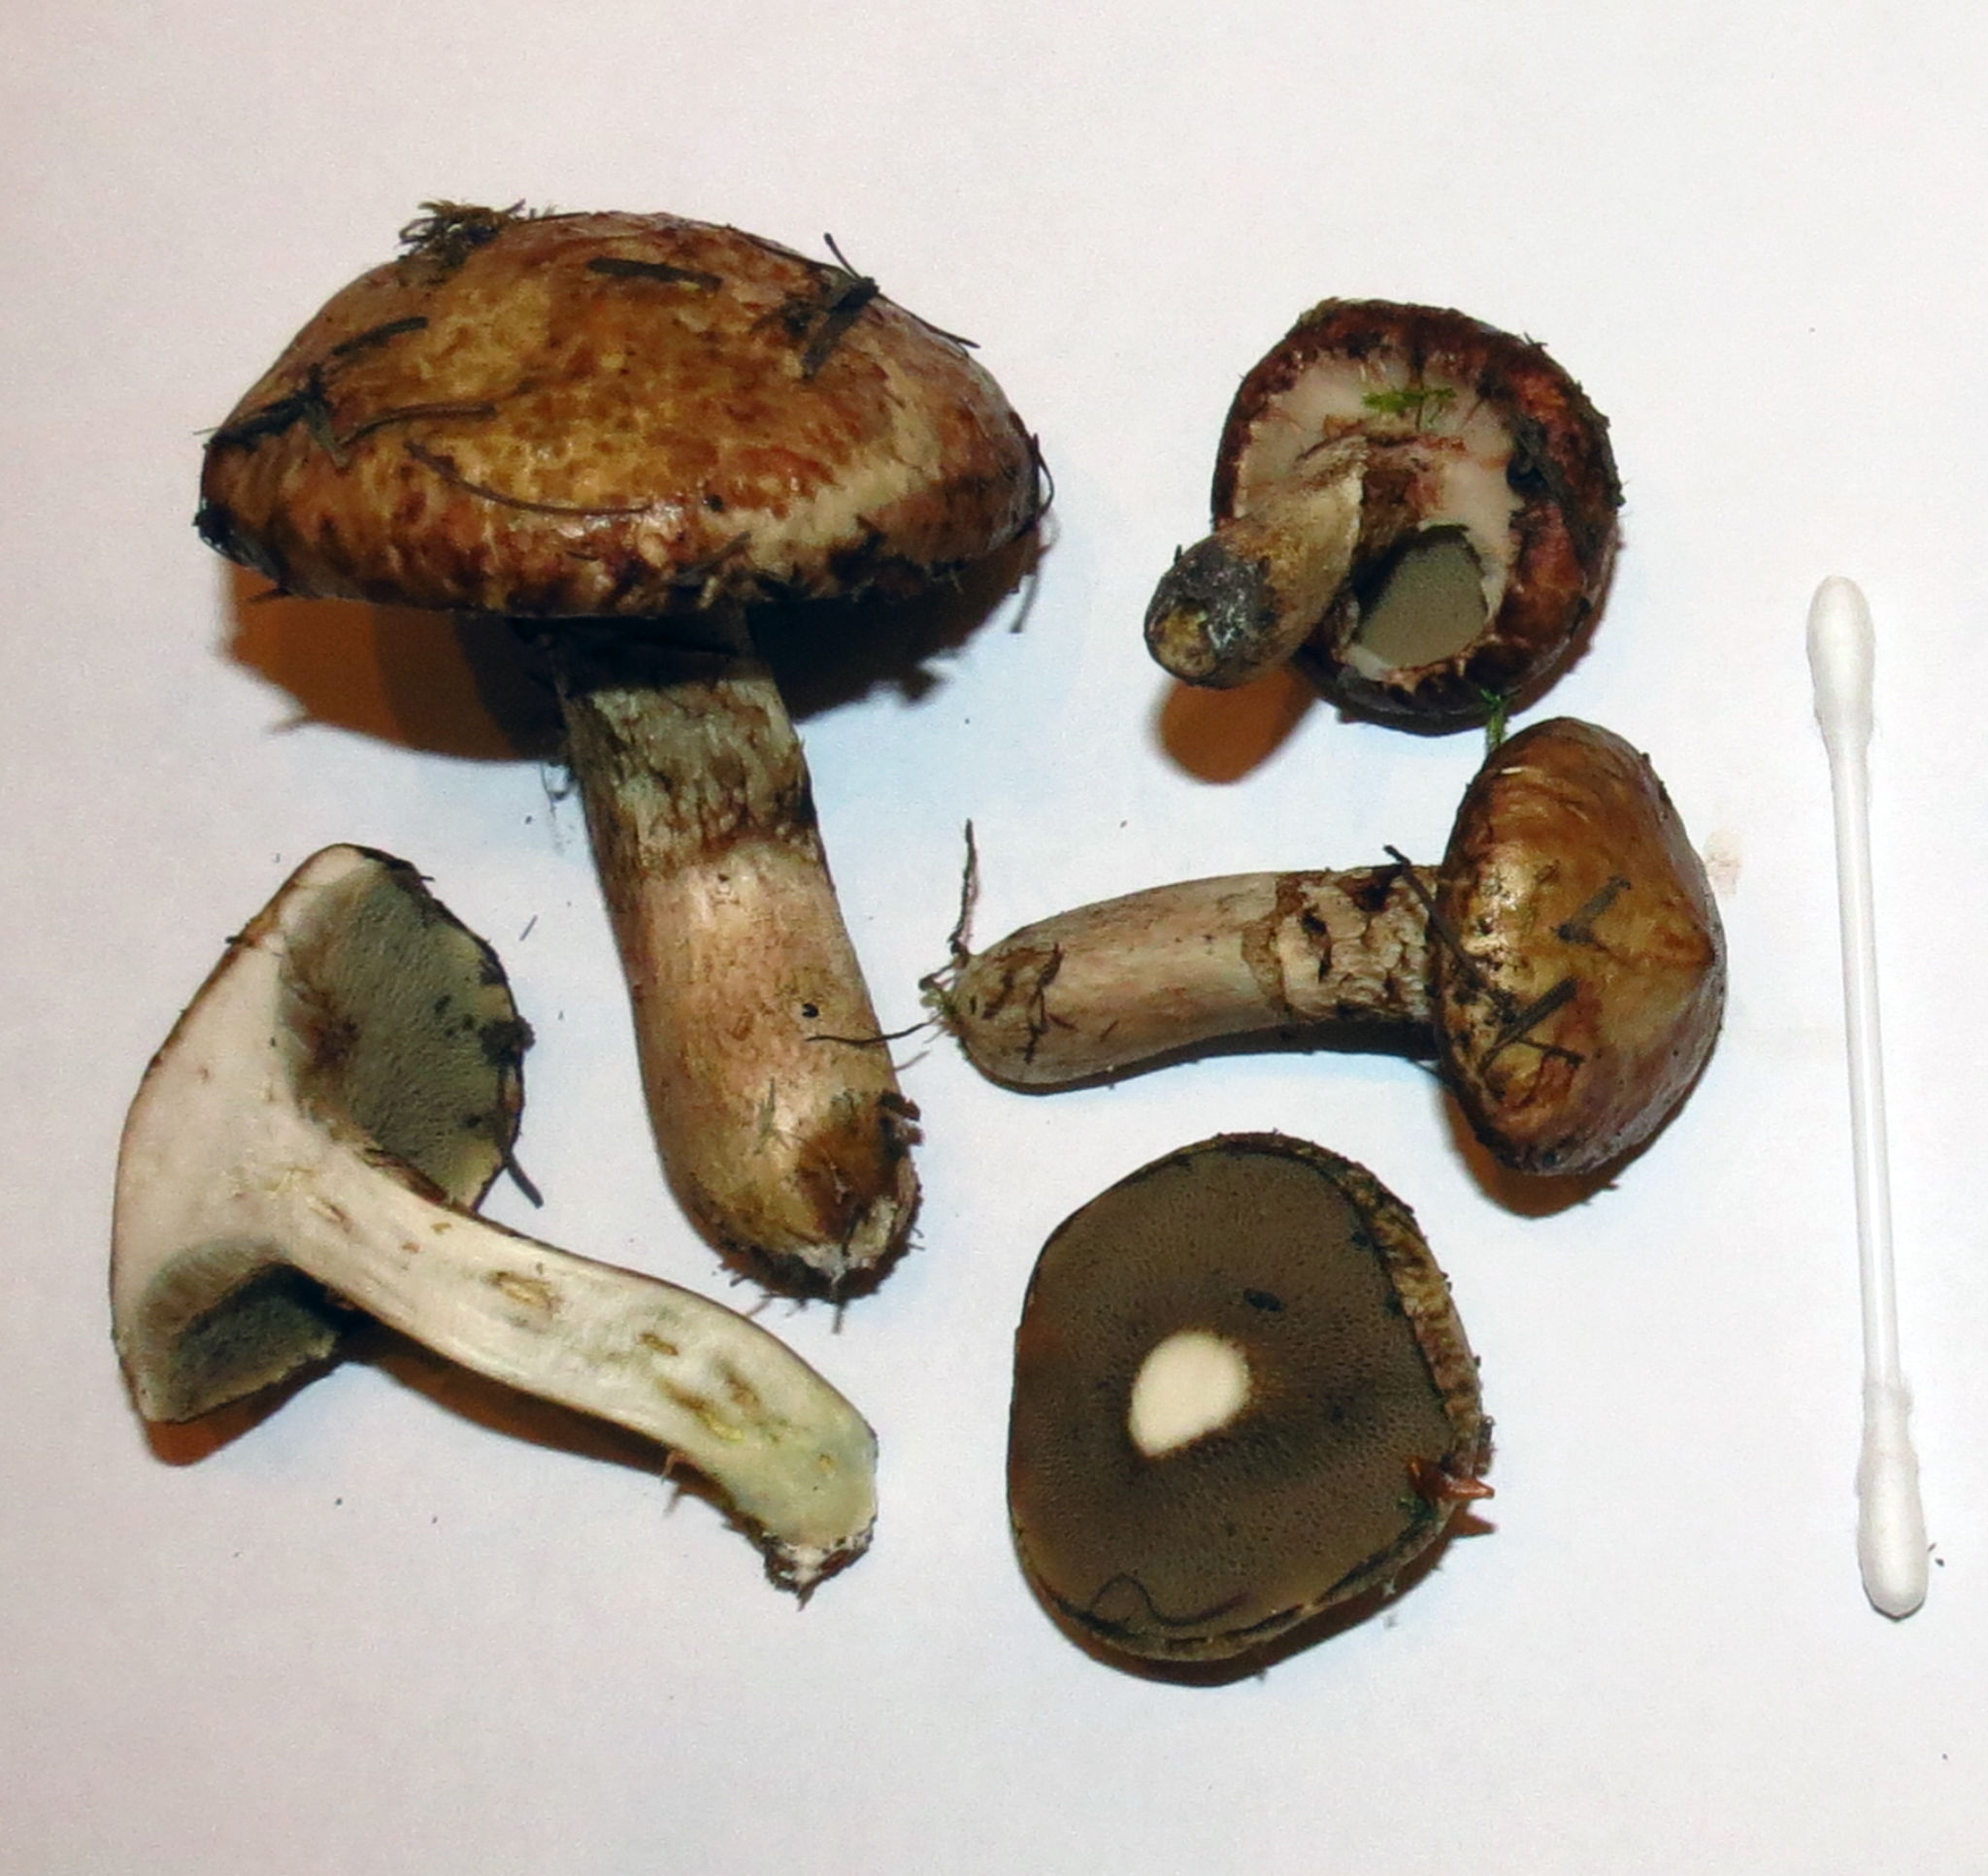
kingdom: Fungi
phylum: Basidiomycota
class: Agaricomycetes
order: Boletales
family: Suillaceae
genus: Suillus
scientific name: Suillus viscidus
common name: Sticky bolete
